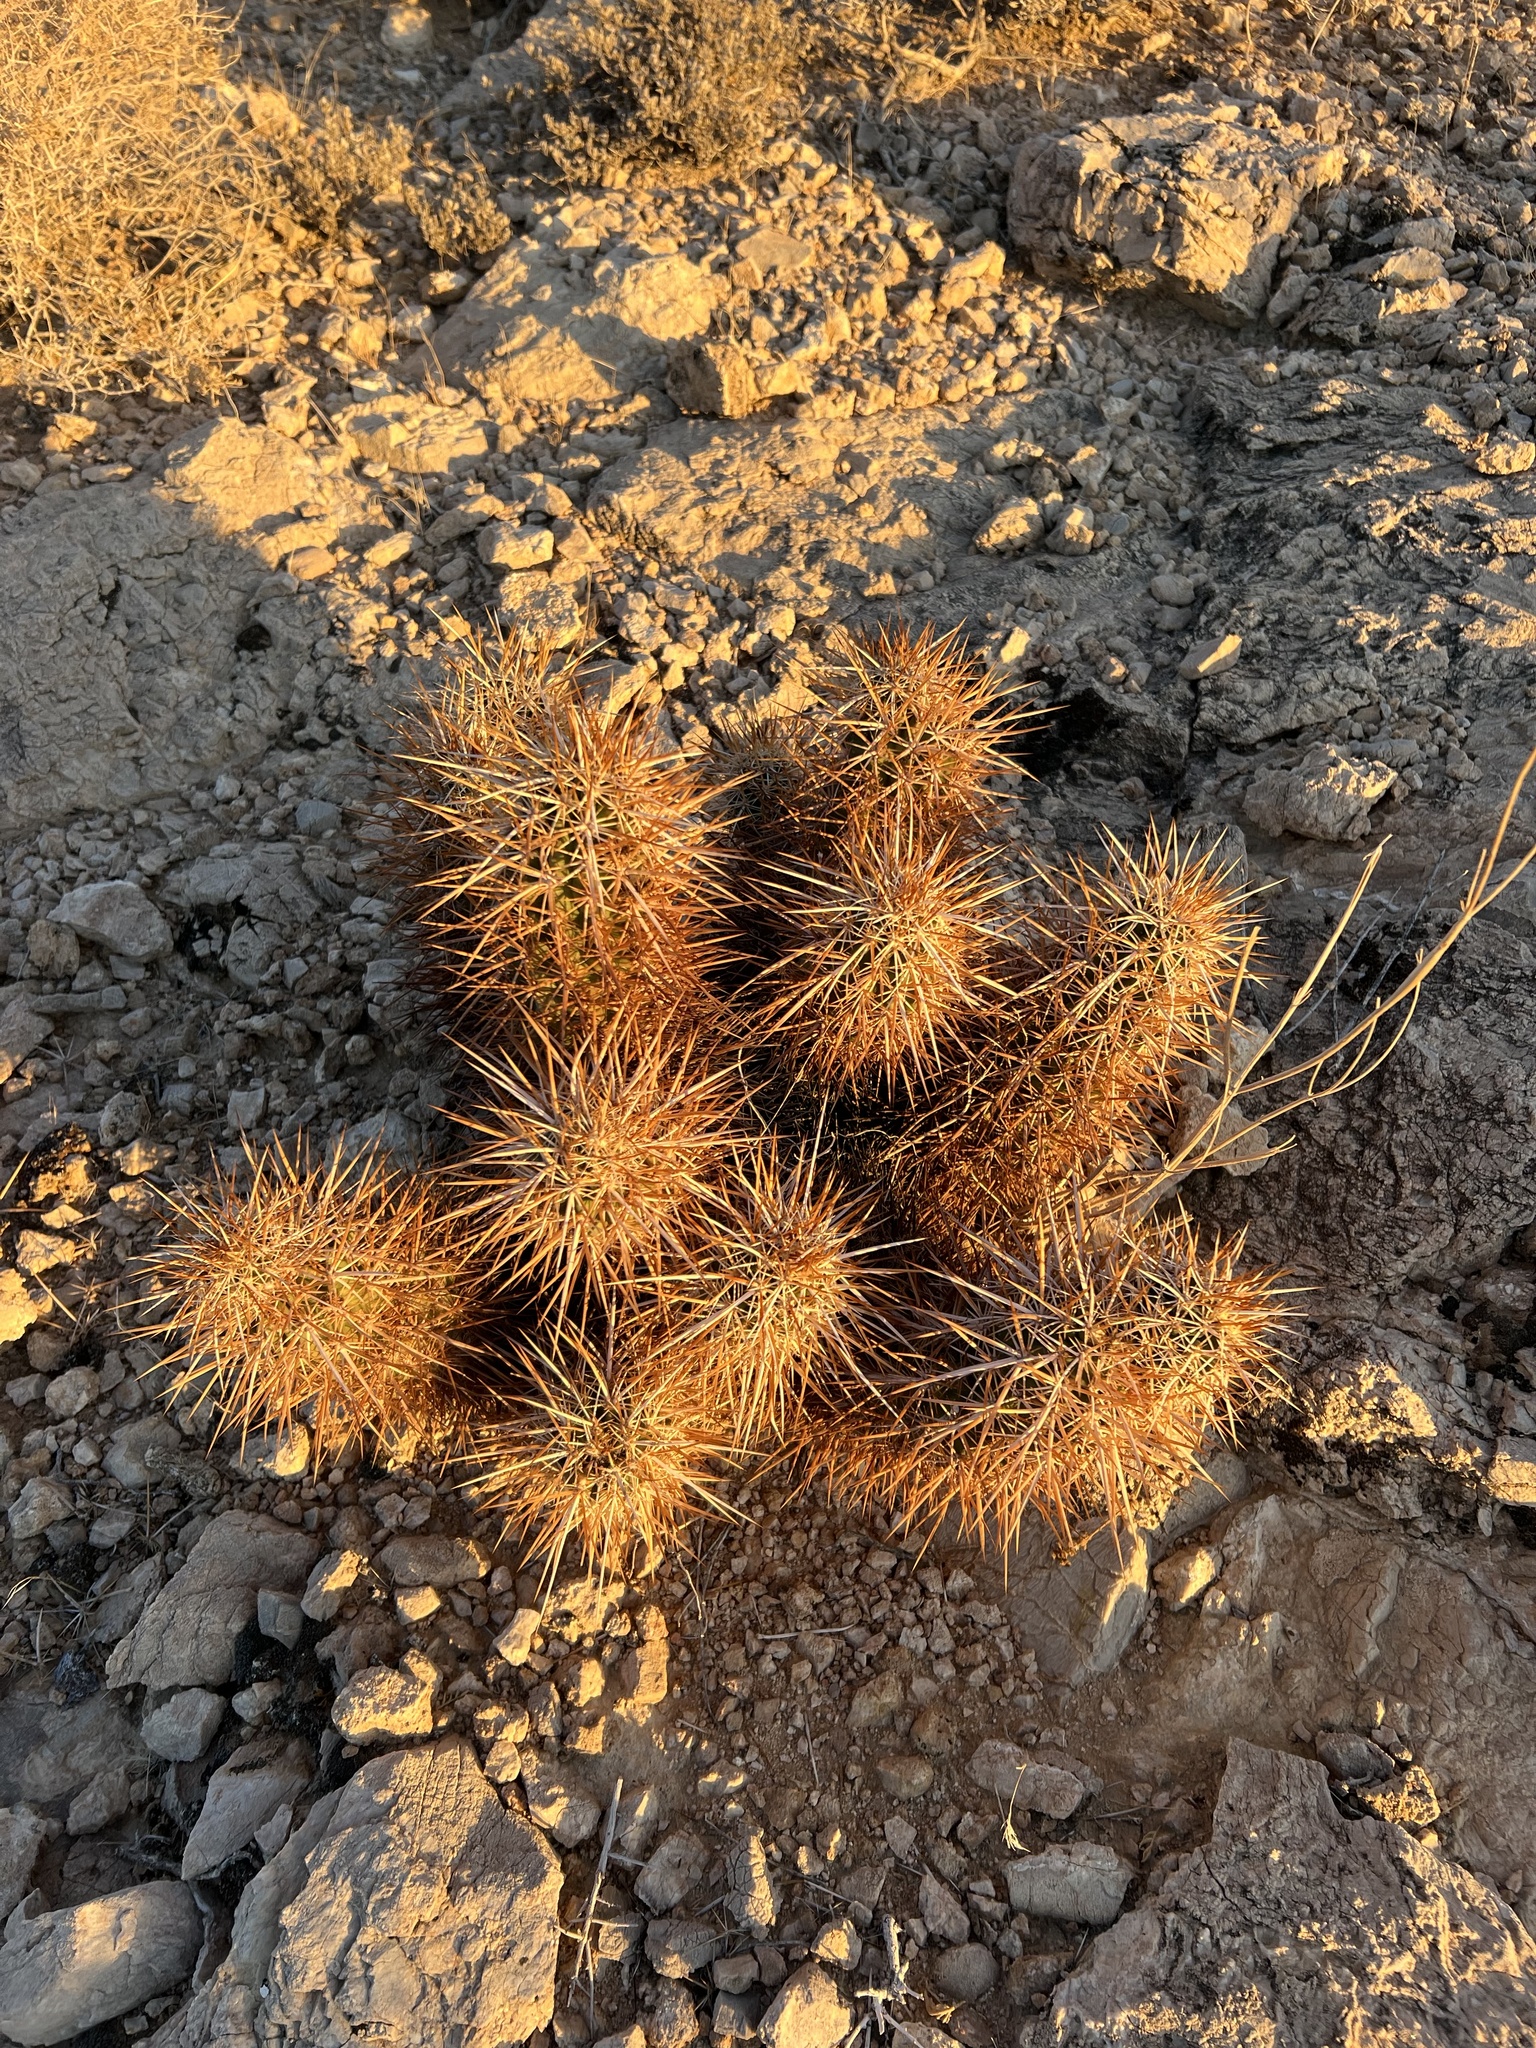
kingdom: Plantae
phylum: Tracheophyta
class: Magnoliopsida
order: Caryophyllales
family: Cactaceae
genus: Echinocereus
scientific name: Echinocereus engelmannii
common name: Engelmann's hedgehog cactus
